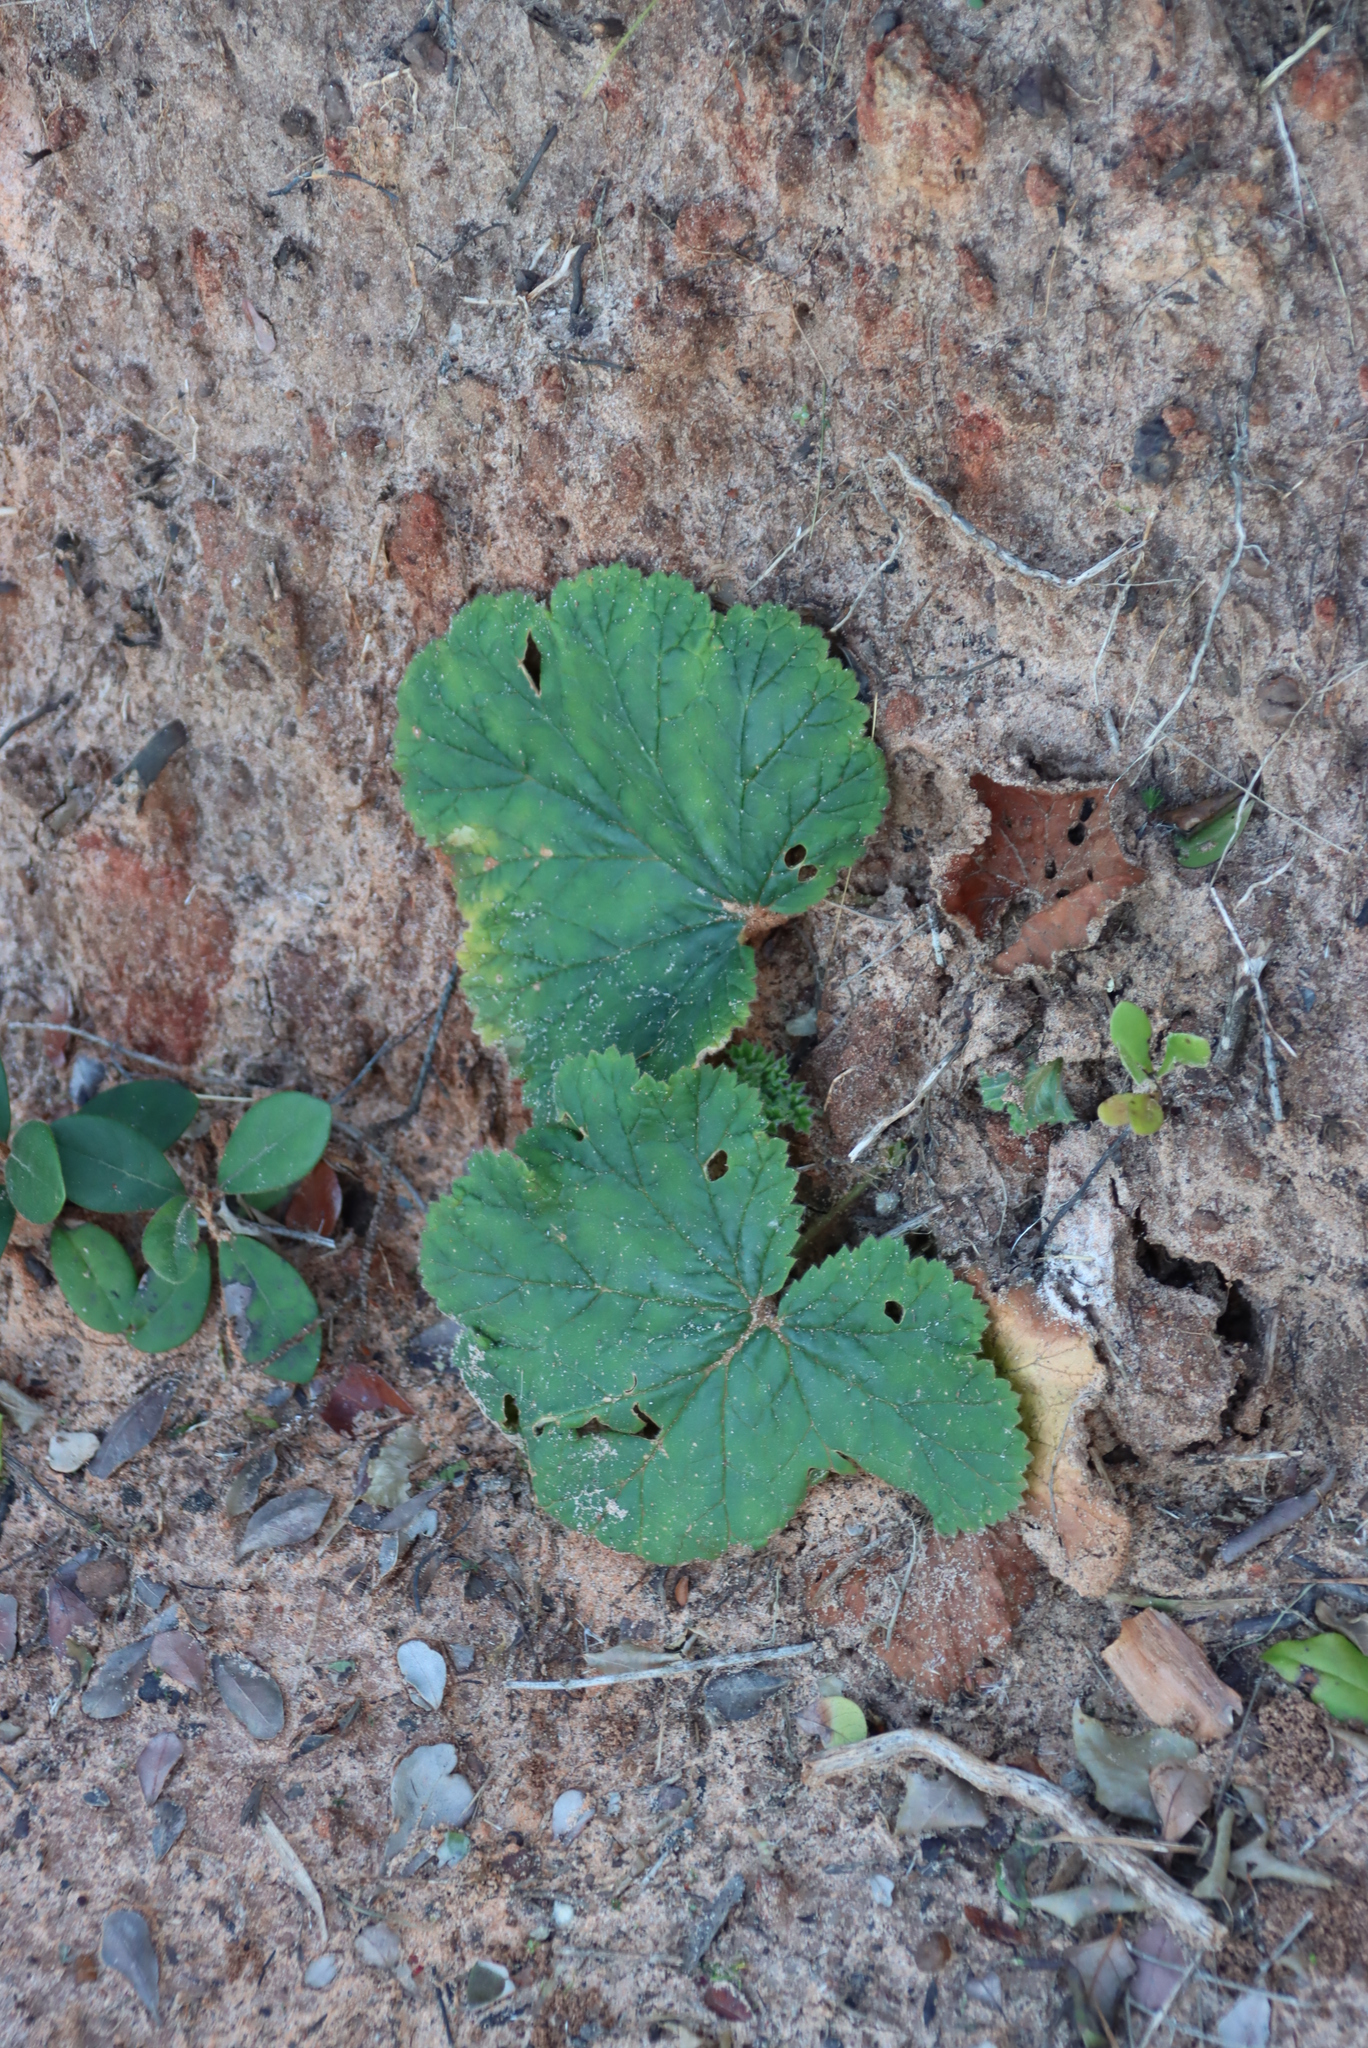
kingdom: Plantae
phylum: Tracheophyta
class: Magnoliopsida
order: Geraniales
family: Geraniaceae
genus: Pelargonium
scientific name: Pelargonium lobatum
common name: Vine-leaf pelargonium
